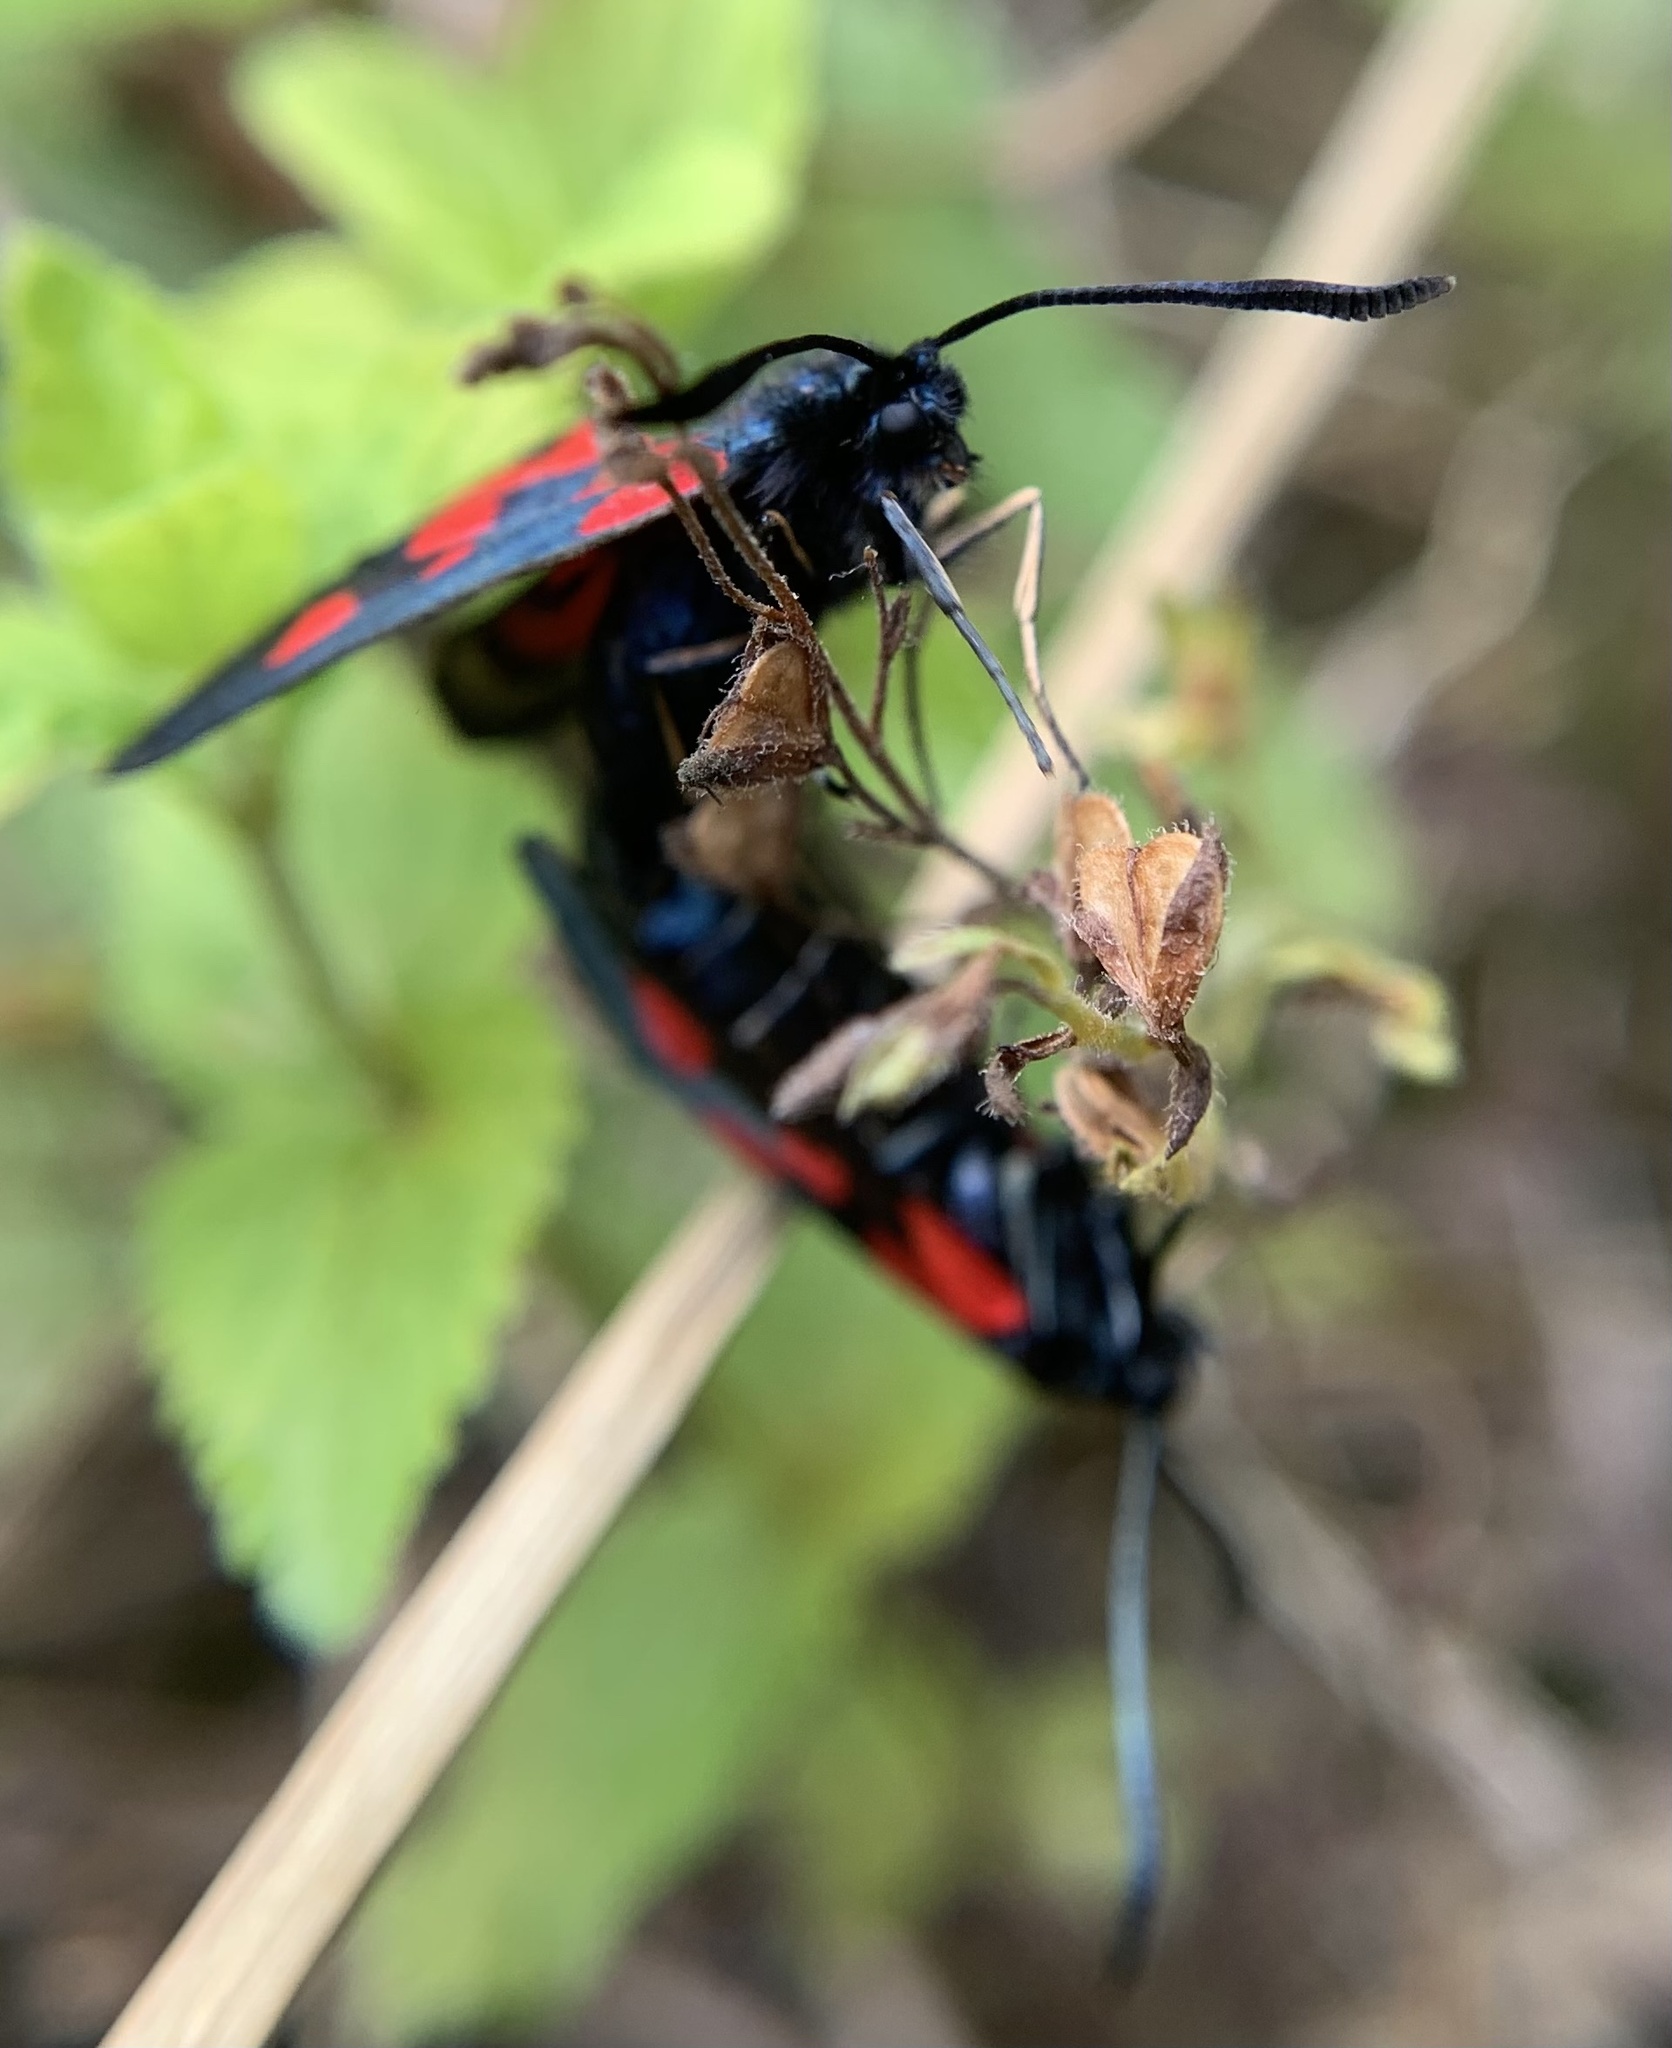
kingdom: Animalia
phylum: Arthropoda
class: Insecta
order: Lepidoptera
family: Zygaenidae
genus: Zygaena
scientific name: Zygaena viciae
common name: New forest burnet
